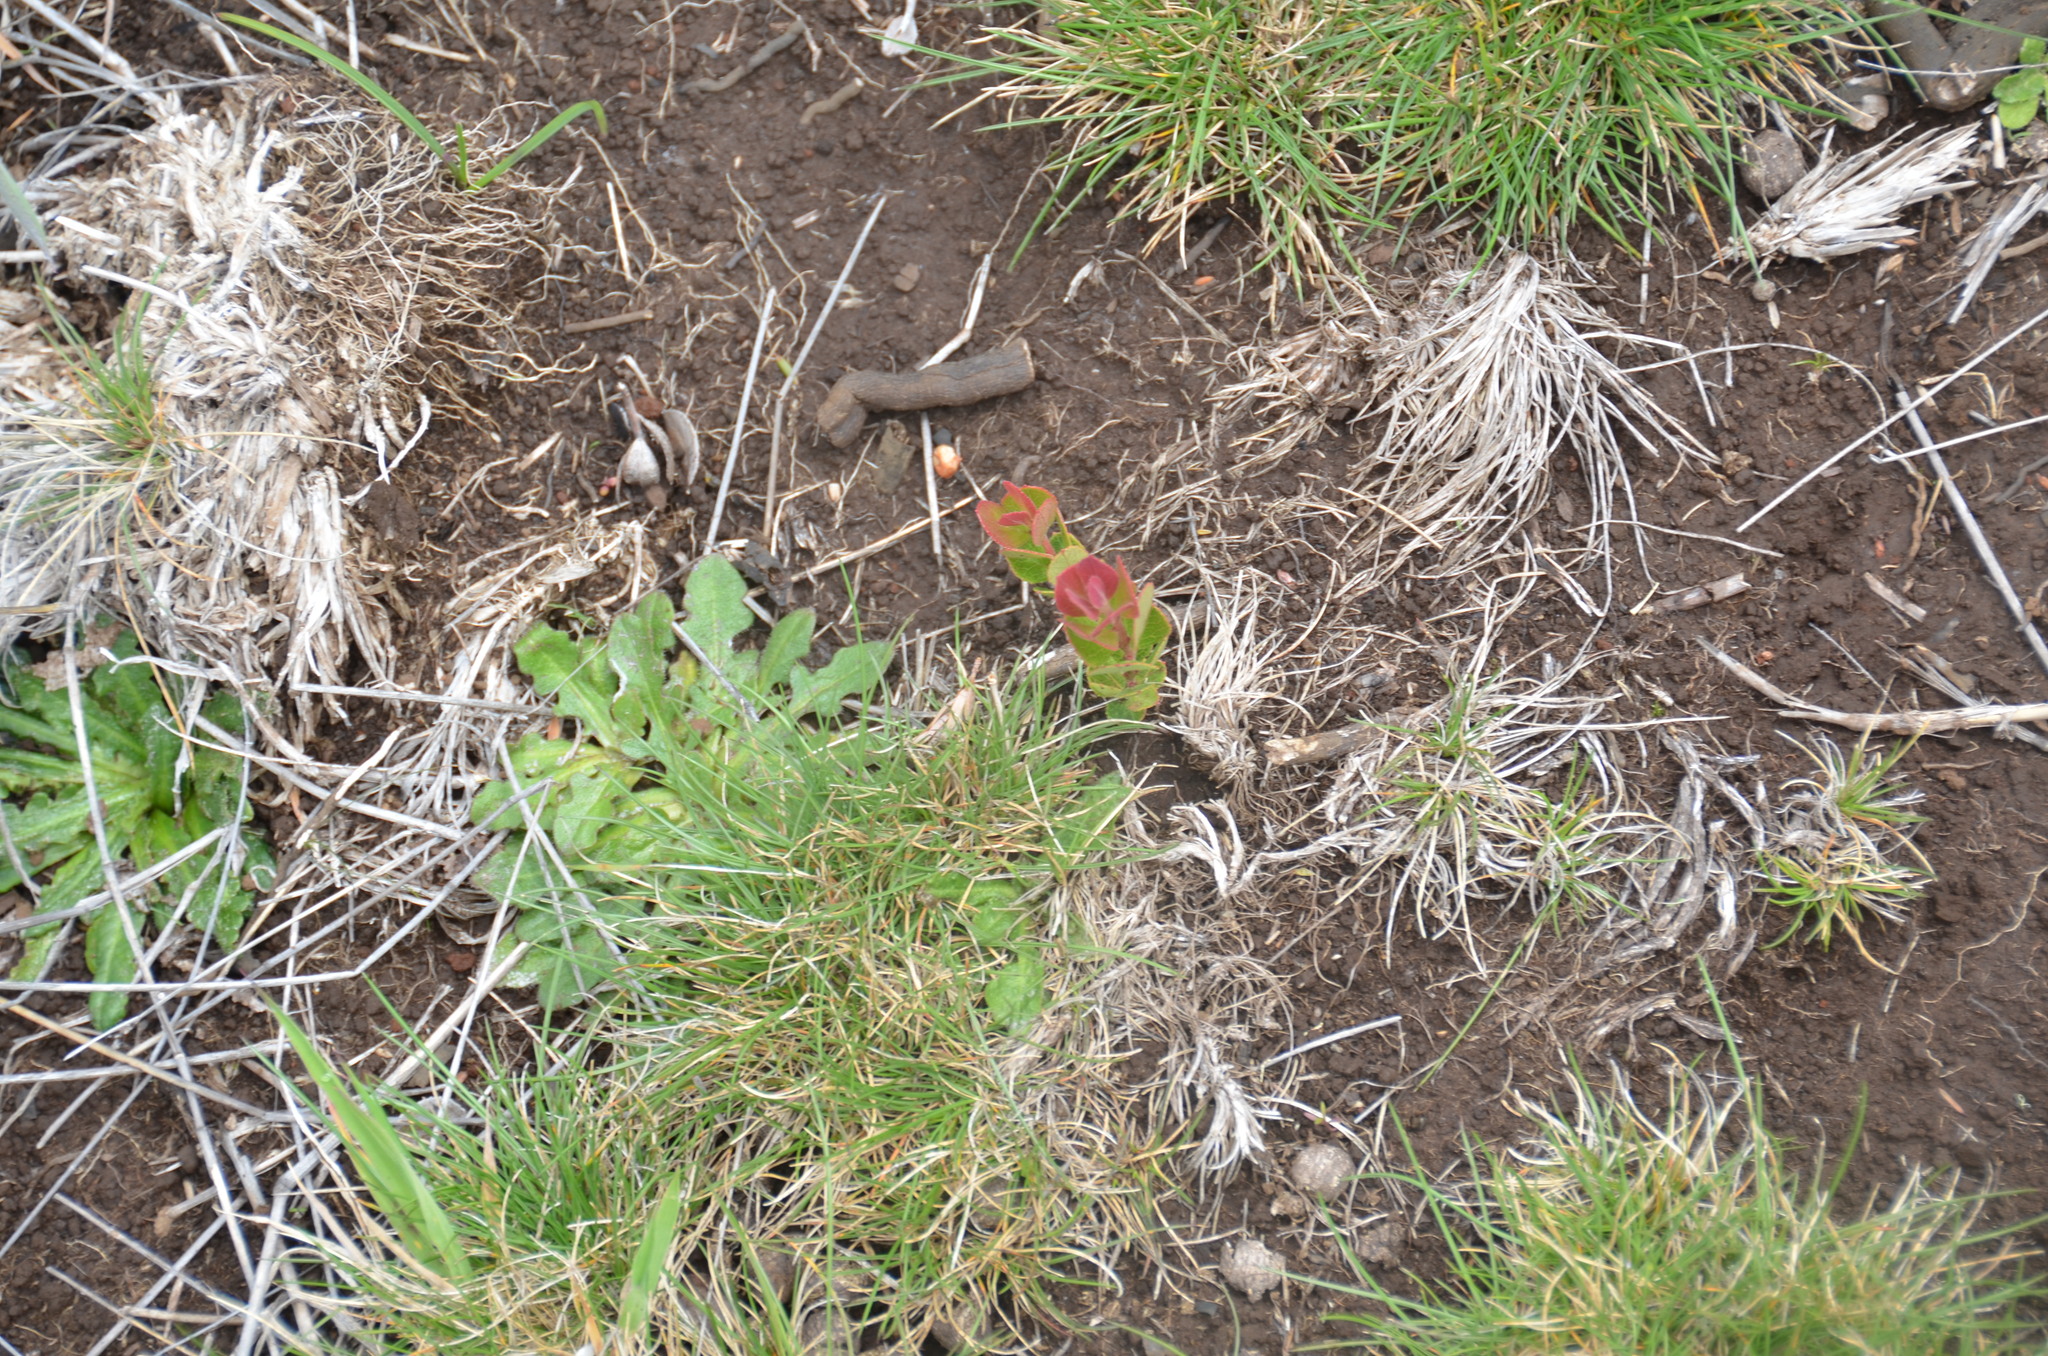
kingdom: Plantae
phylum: Tracheophyta
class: Magnoliopsida
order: Ericales
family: Ericaceae
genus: Vaccinium
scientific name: Vaccinium reticulatum
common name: Ohelo
